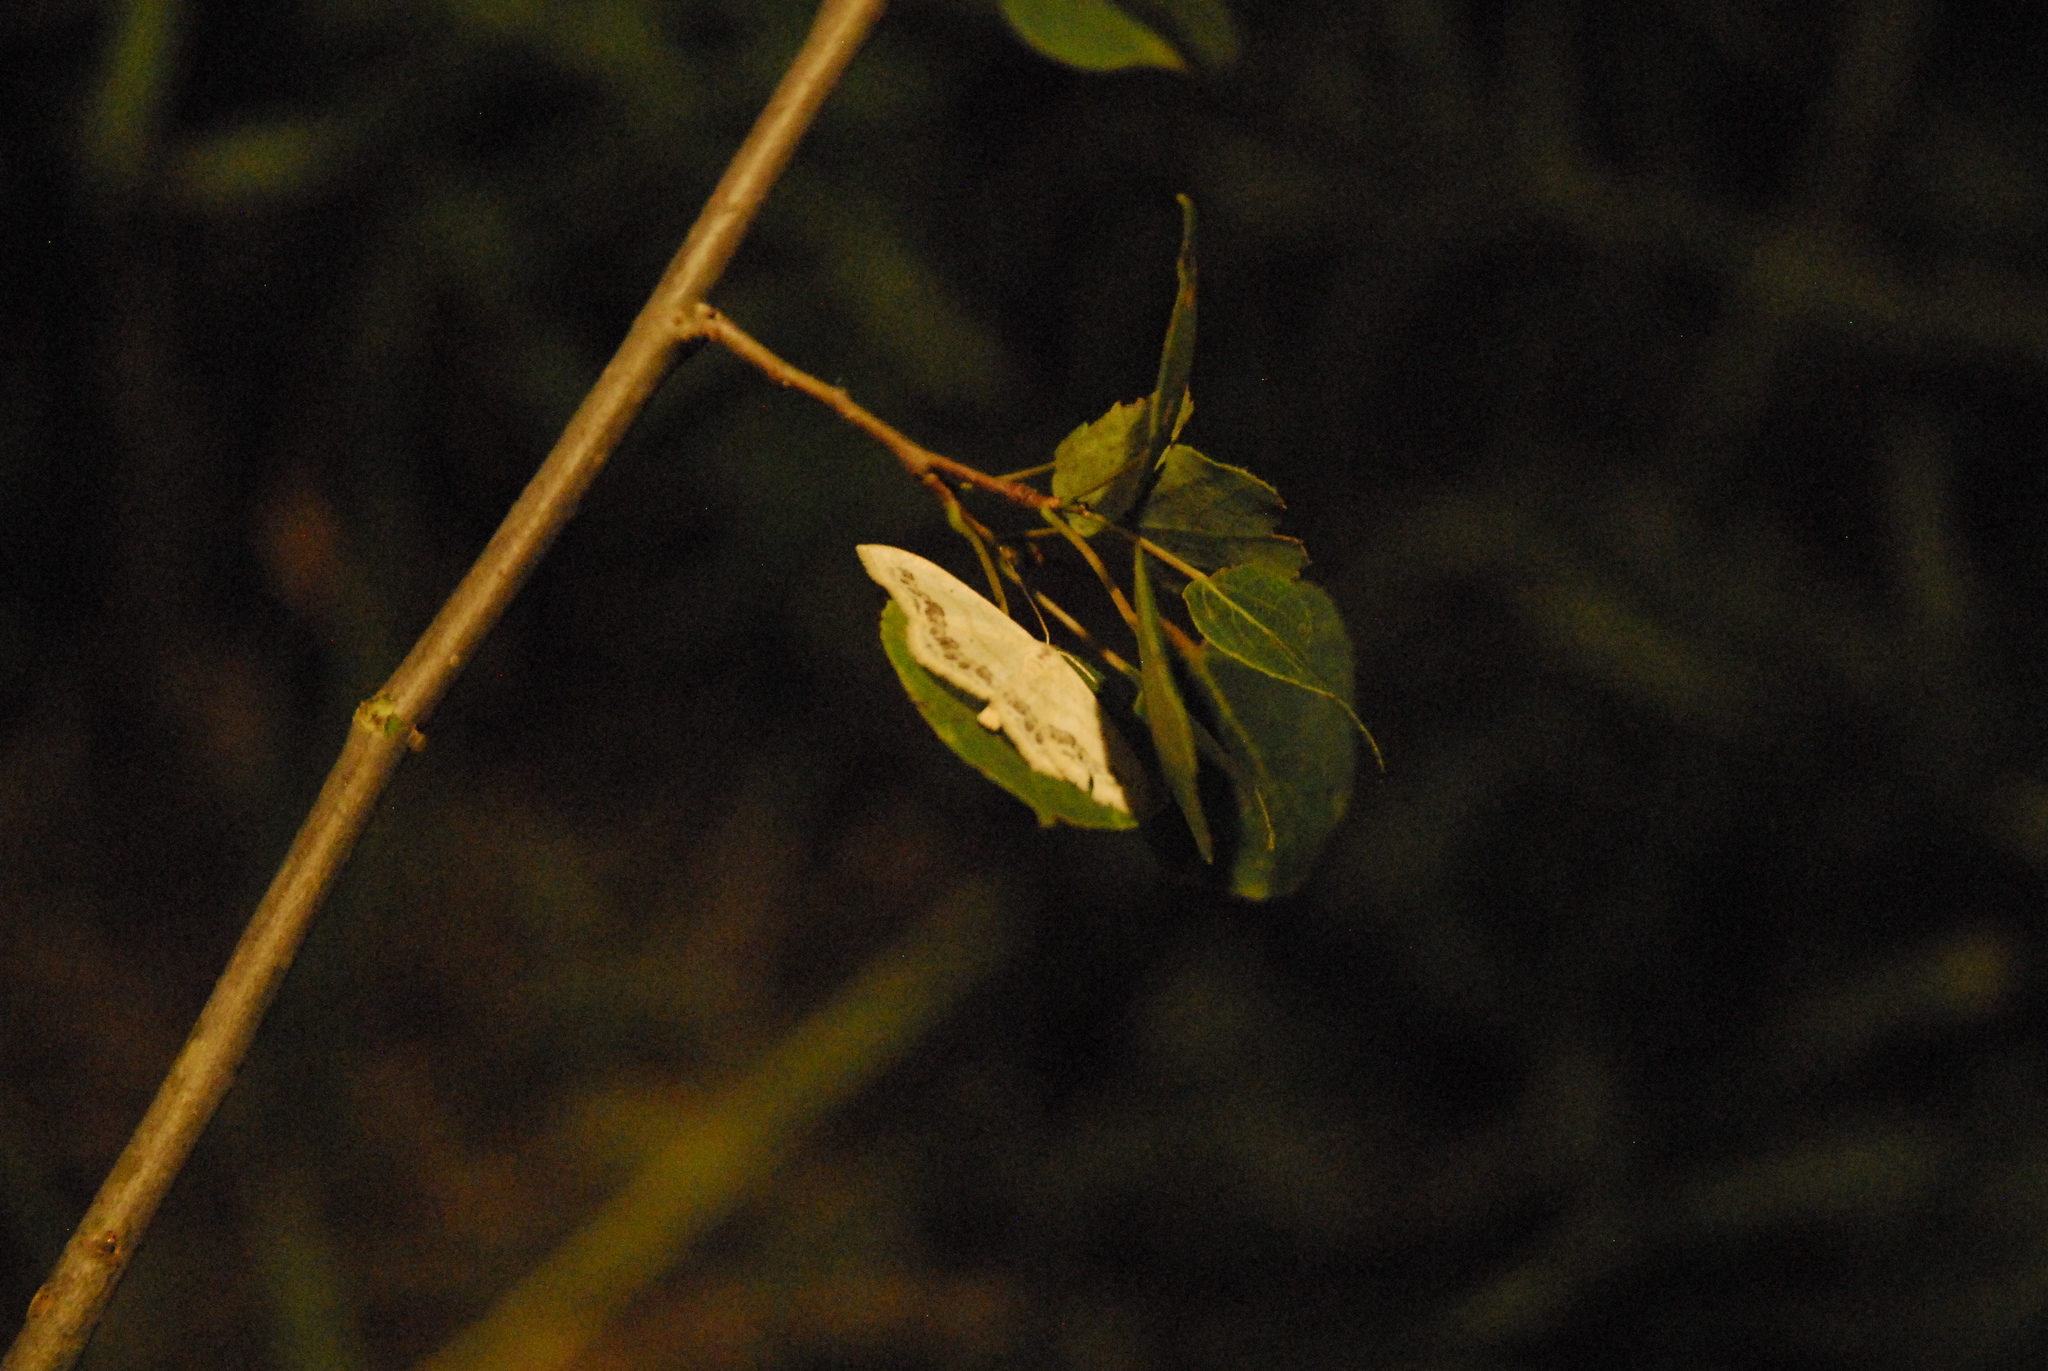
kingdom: Animalia
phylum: Arthropoda
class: Insecta
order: Lepidoptera
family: Geometridae
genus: Scopula
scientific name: Scopula limboundata
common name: Large lace border
